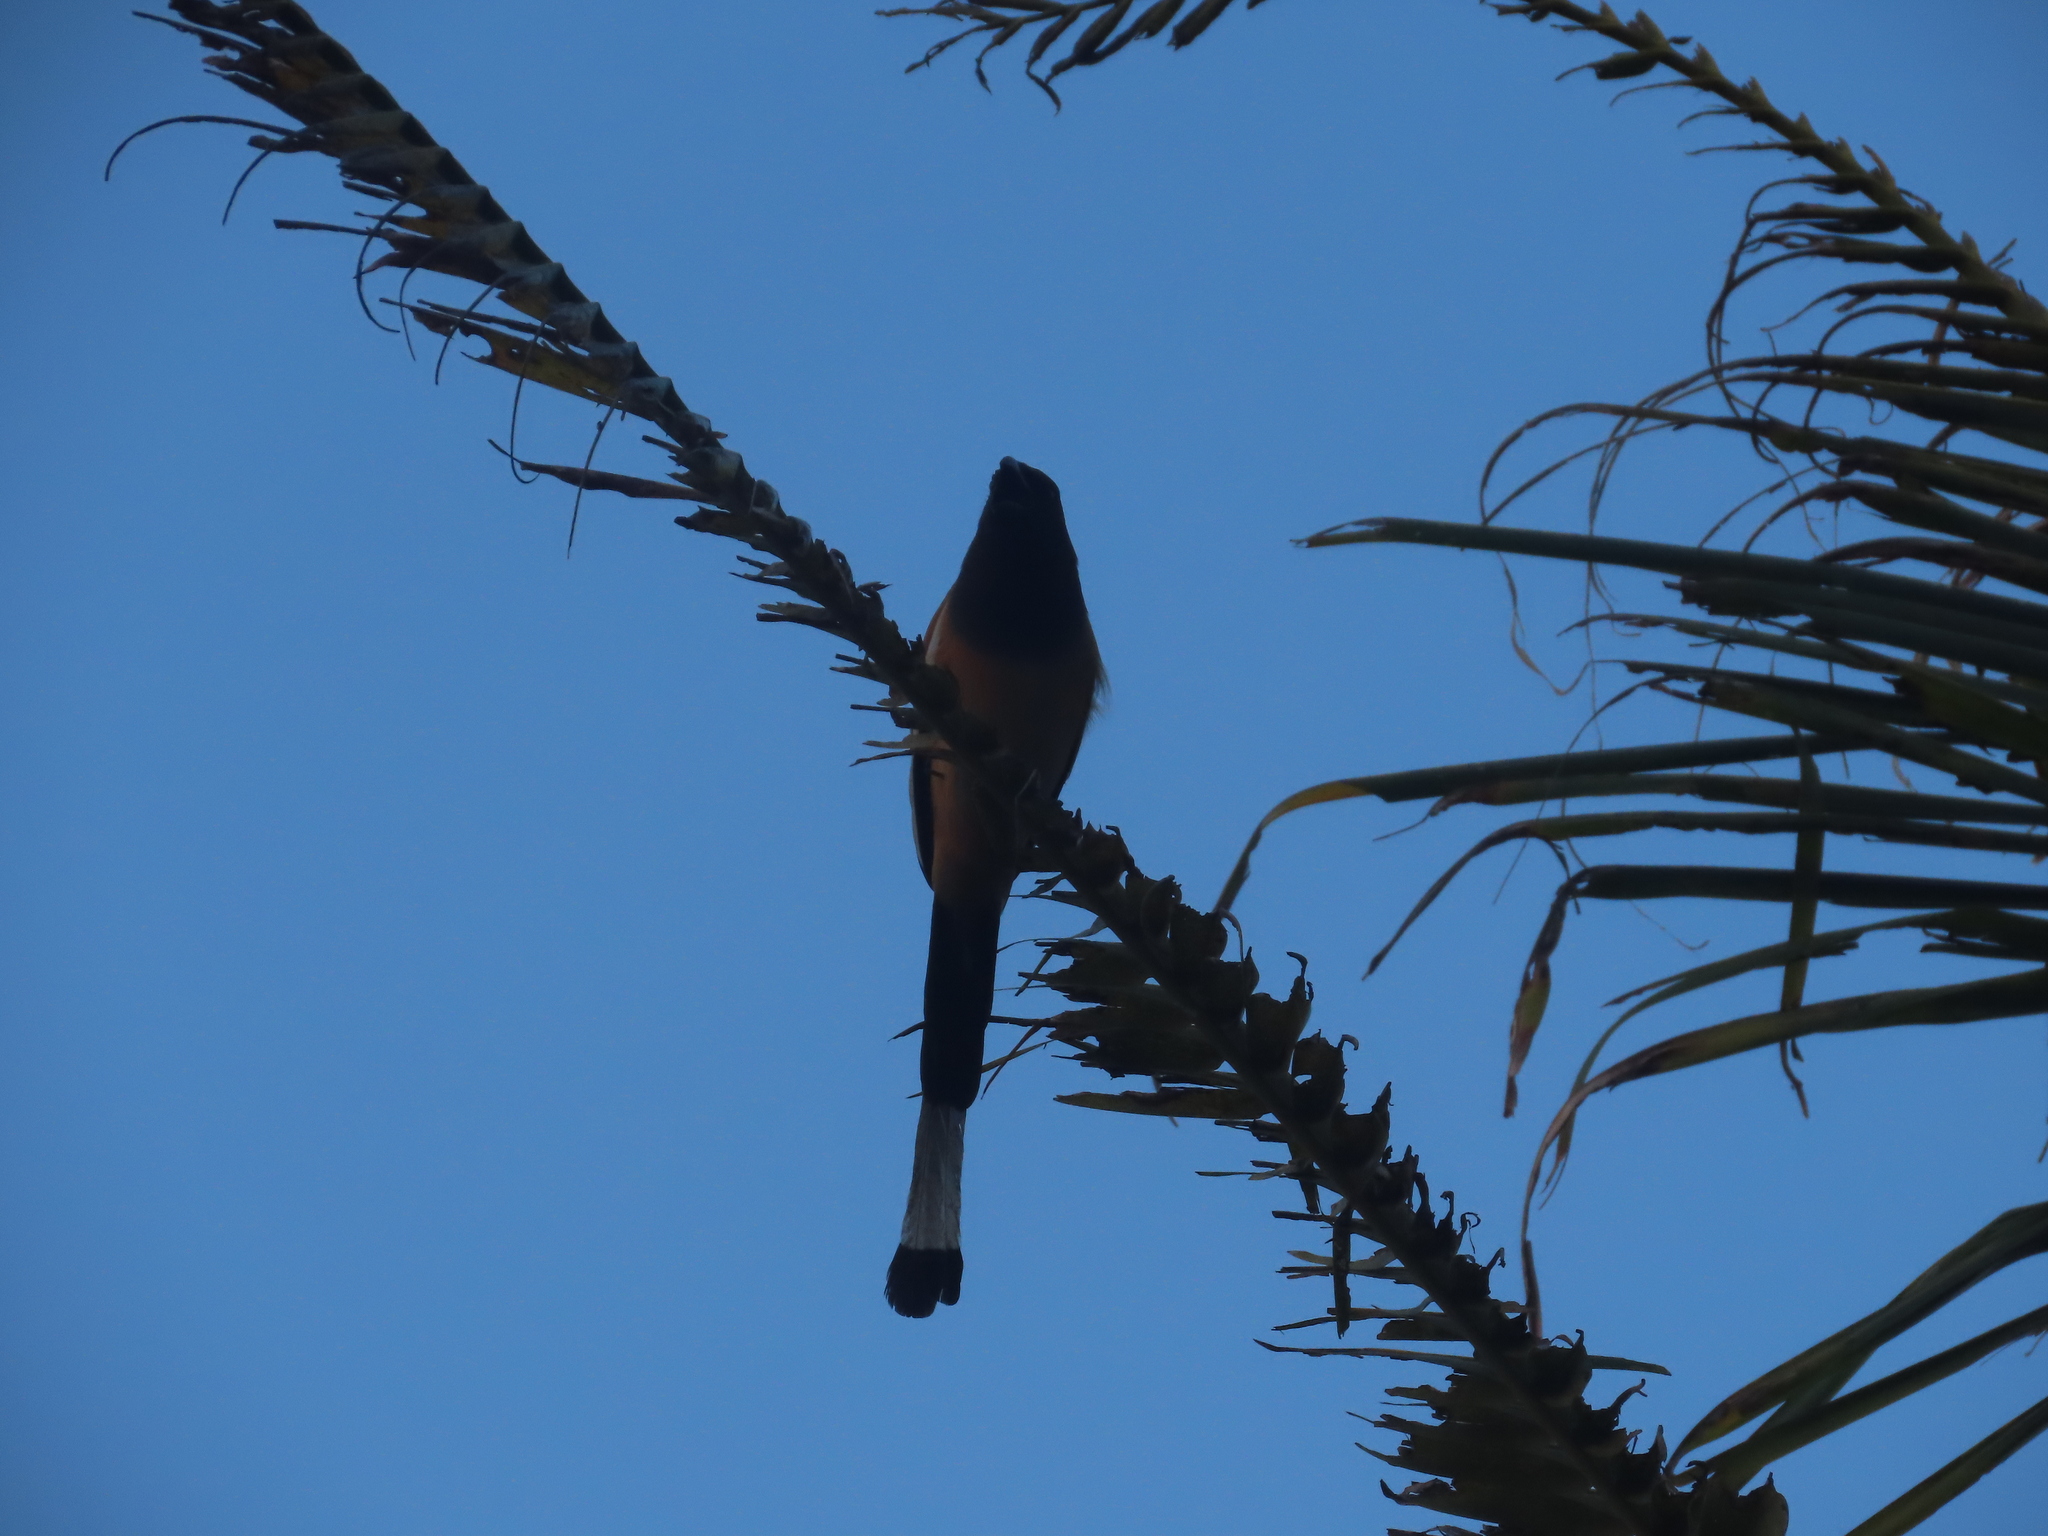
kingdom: Animalia
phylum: Chordata
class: Aves
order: Passeriformes
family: Corvidae
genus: Dendrocitta
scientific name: Dendrocitta vagabunda
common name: Rufous treepie
